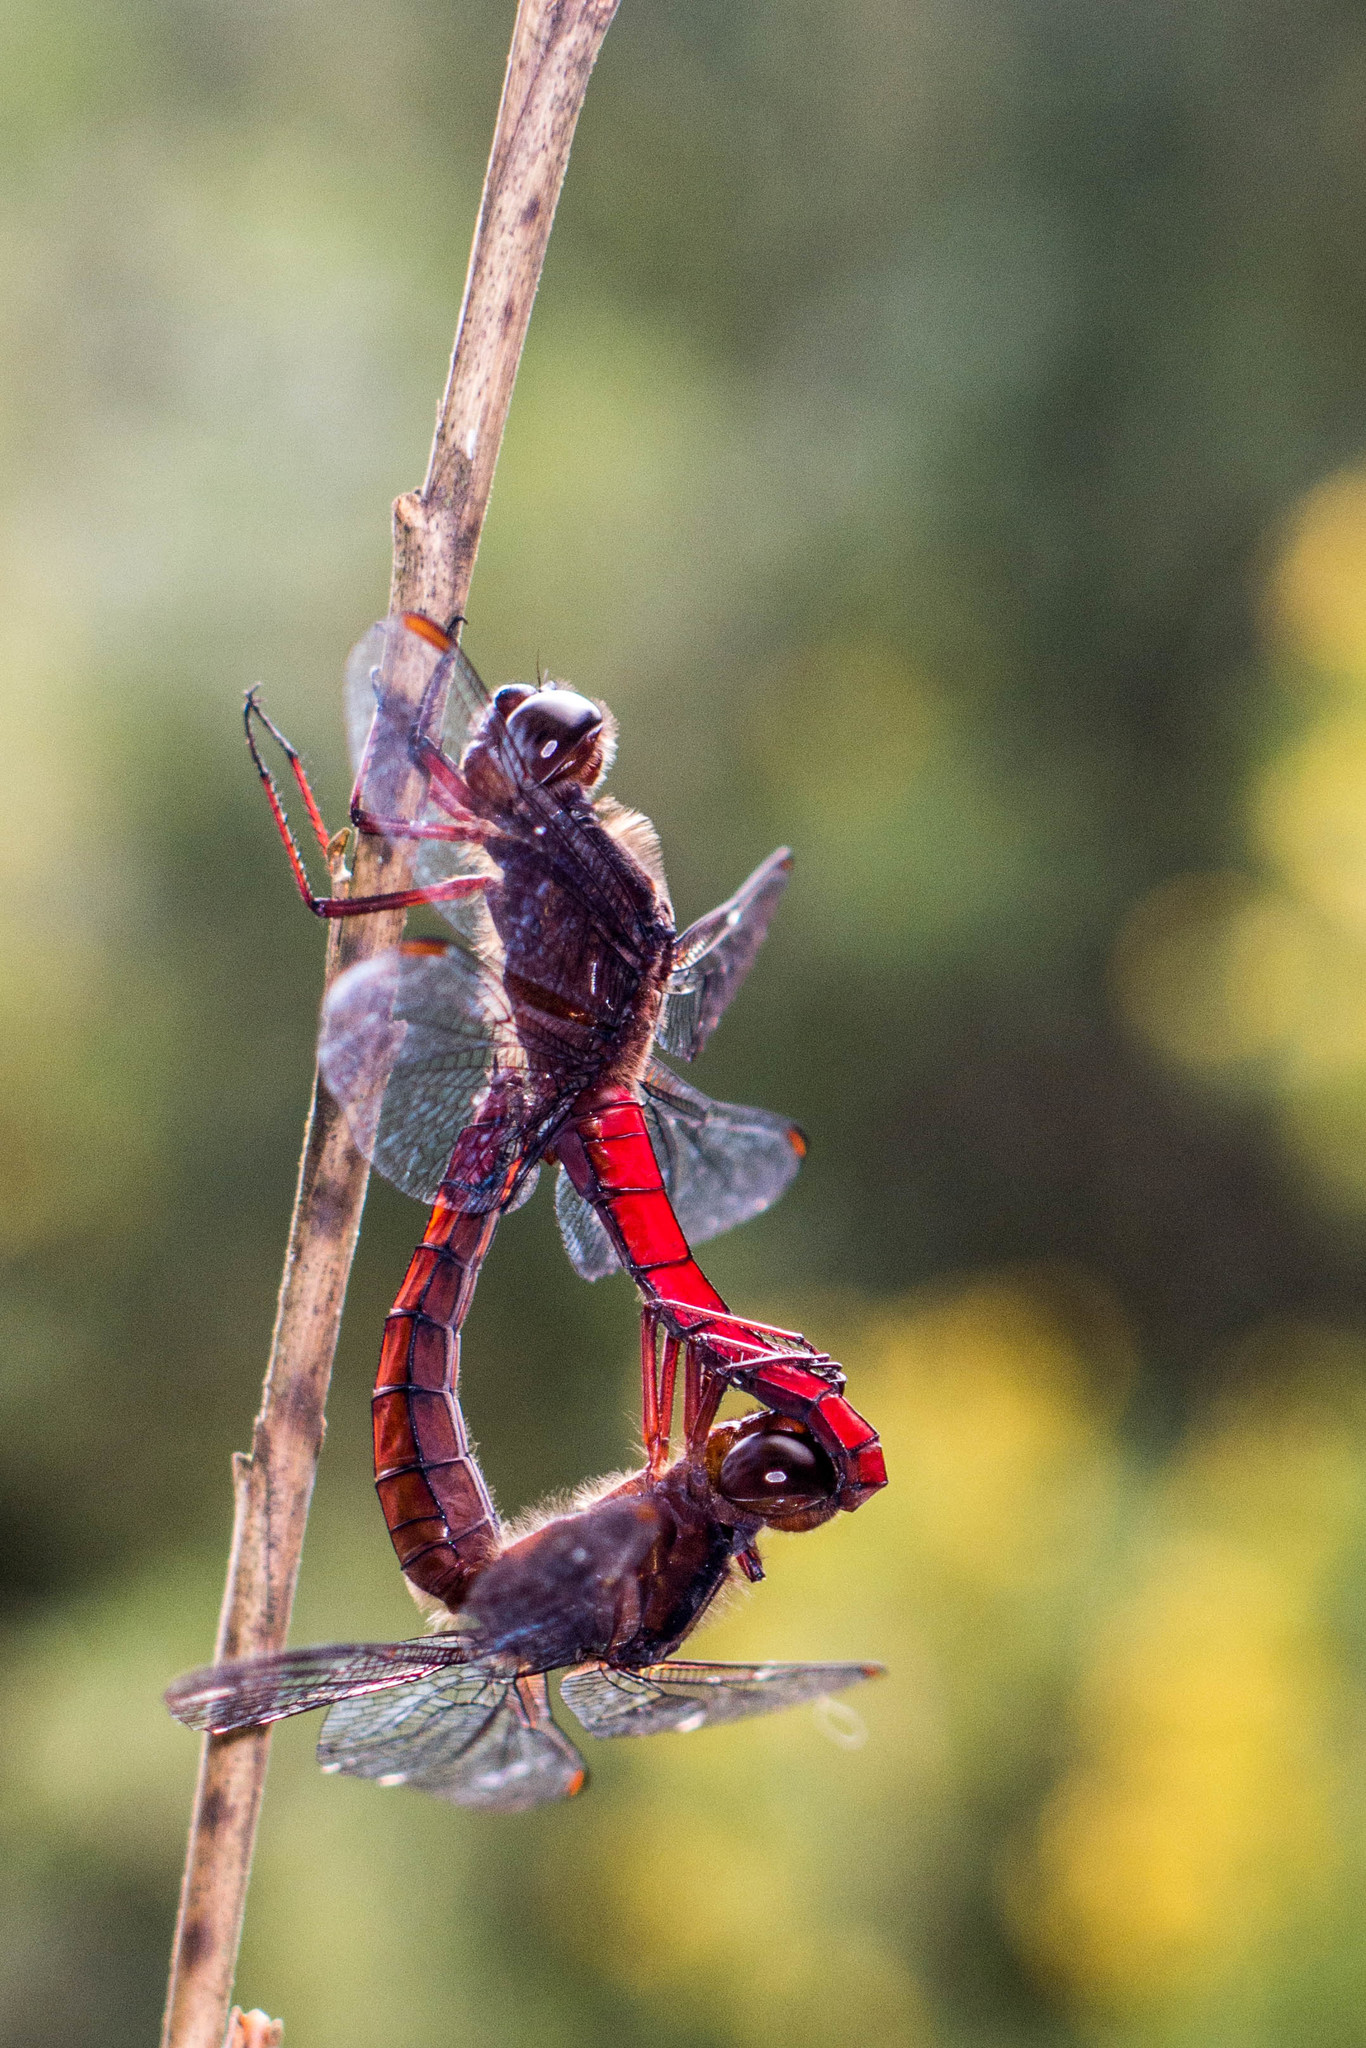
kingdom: Animalia
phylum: Arthropoda
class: Insecta
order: Odonata
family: Libellulidae
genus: Libellula
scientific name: Libellula herculea
